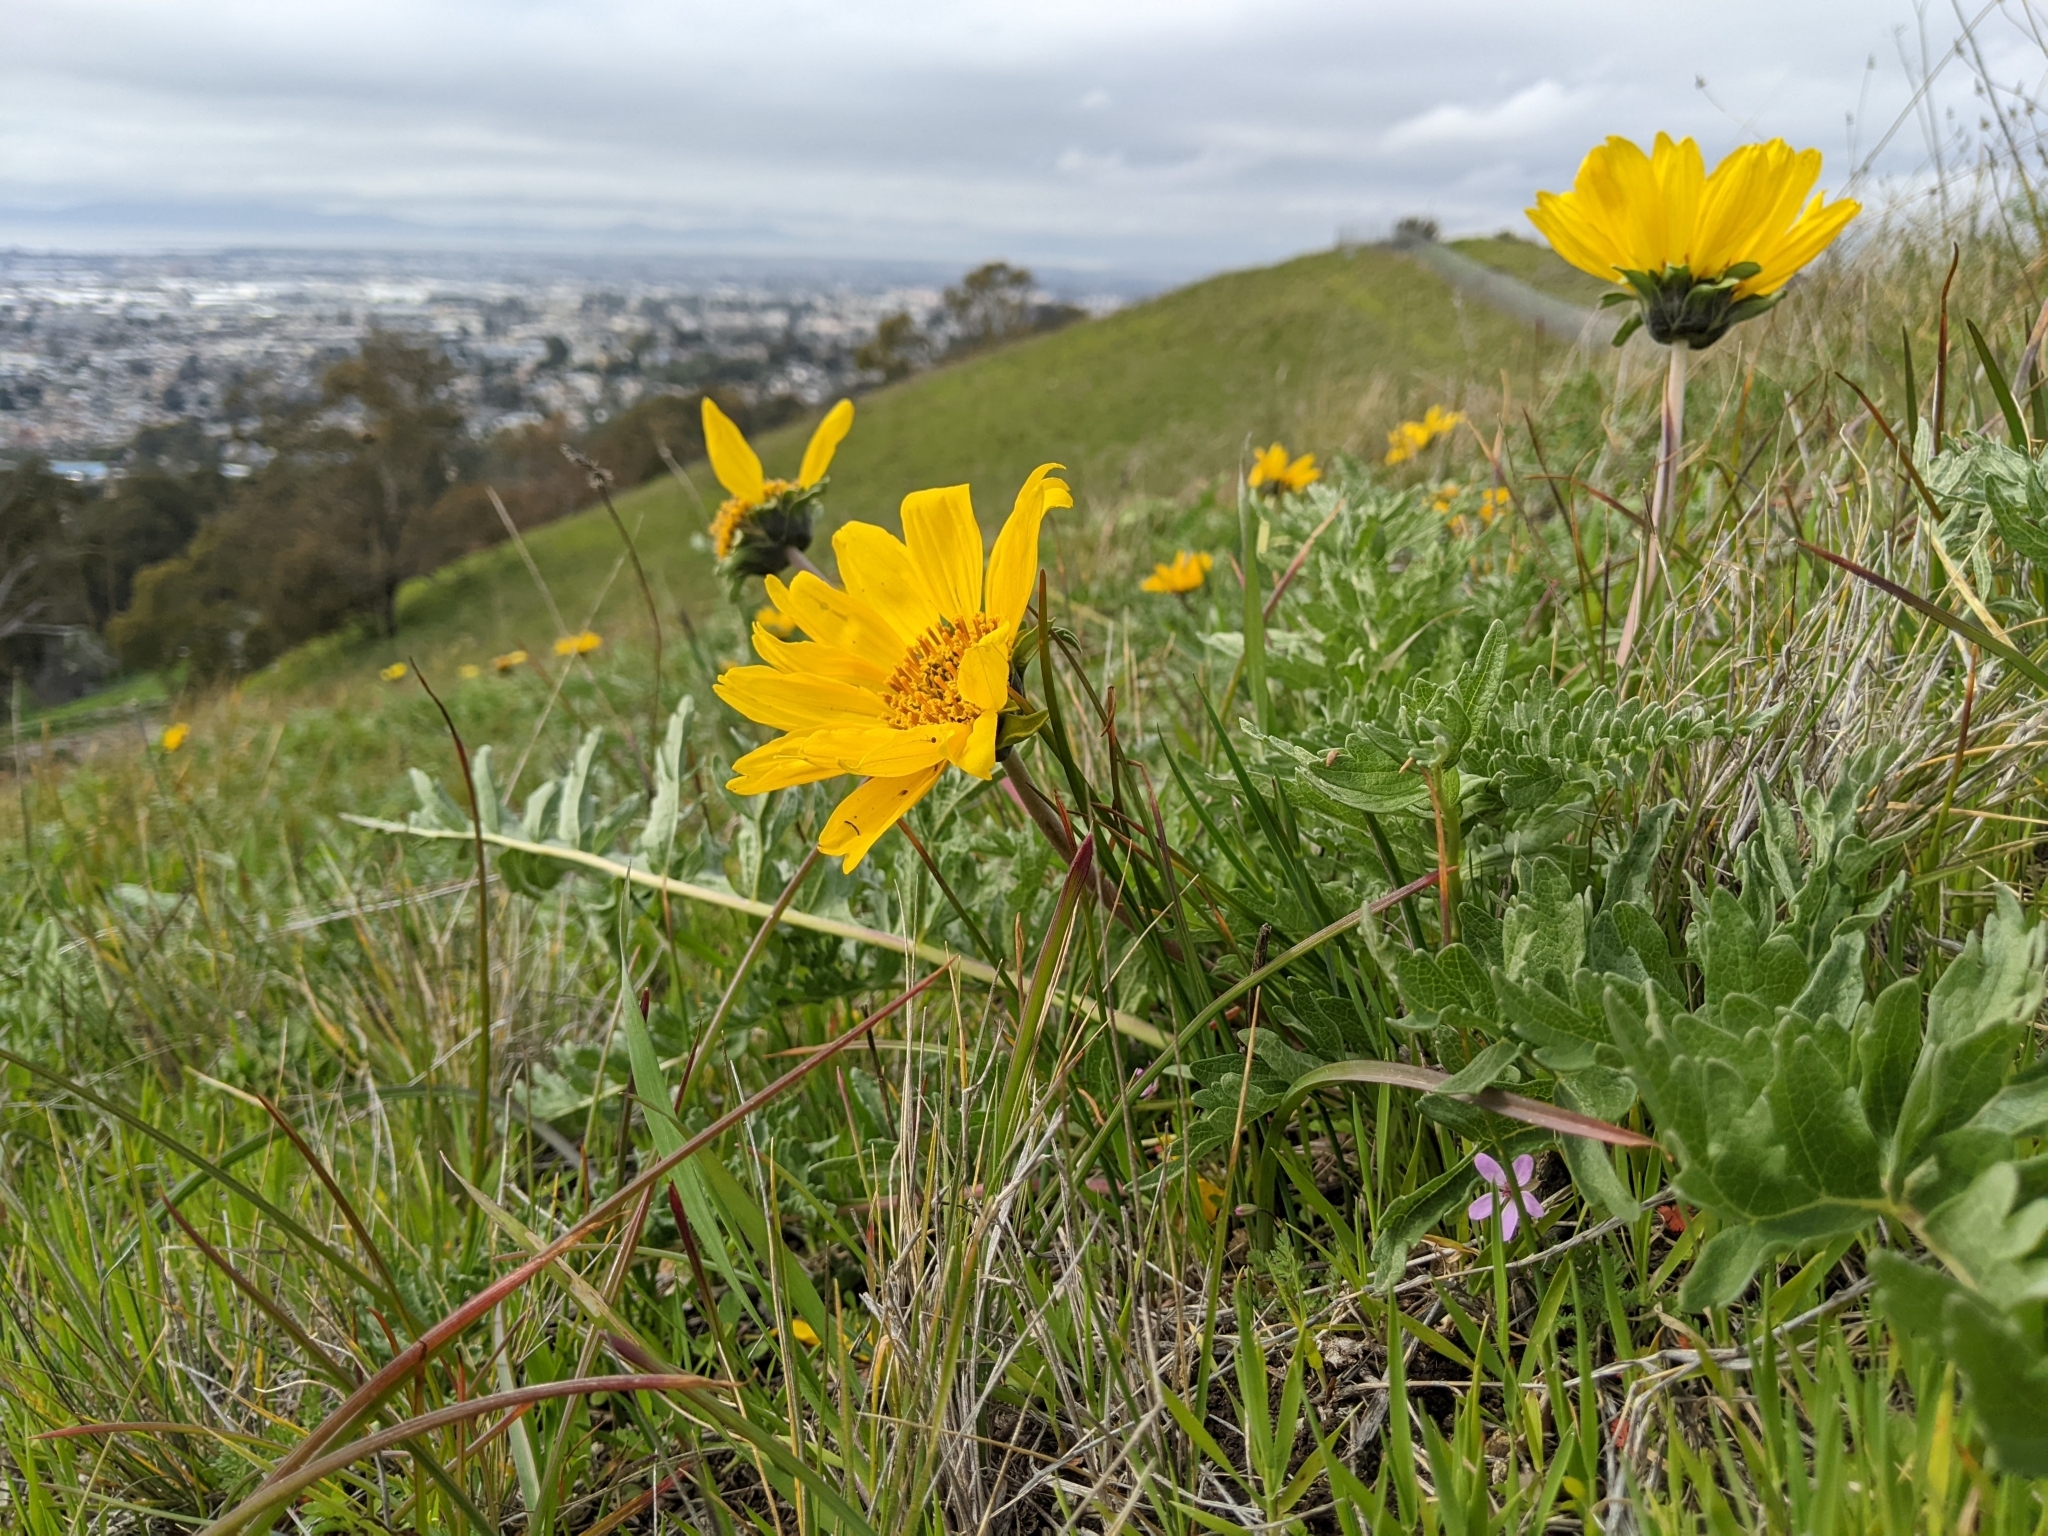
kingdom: Plantae
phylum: Tracheophyta
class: Magnoliopsida
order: Asterales
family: Asteraceae
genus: Balsamorhiza
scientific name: Balsamorhiza macrolepis
